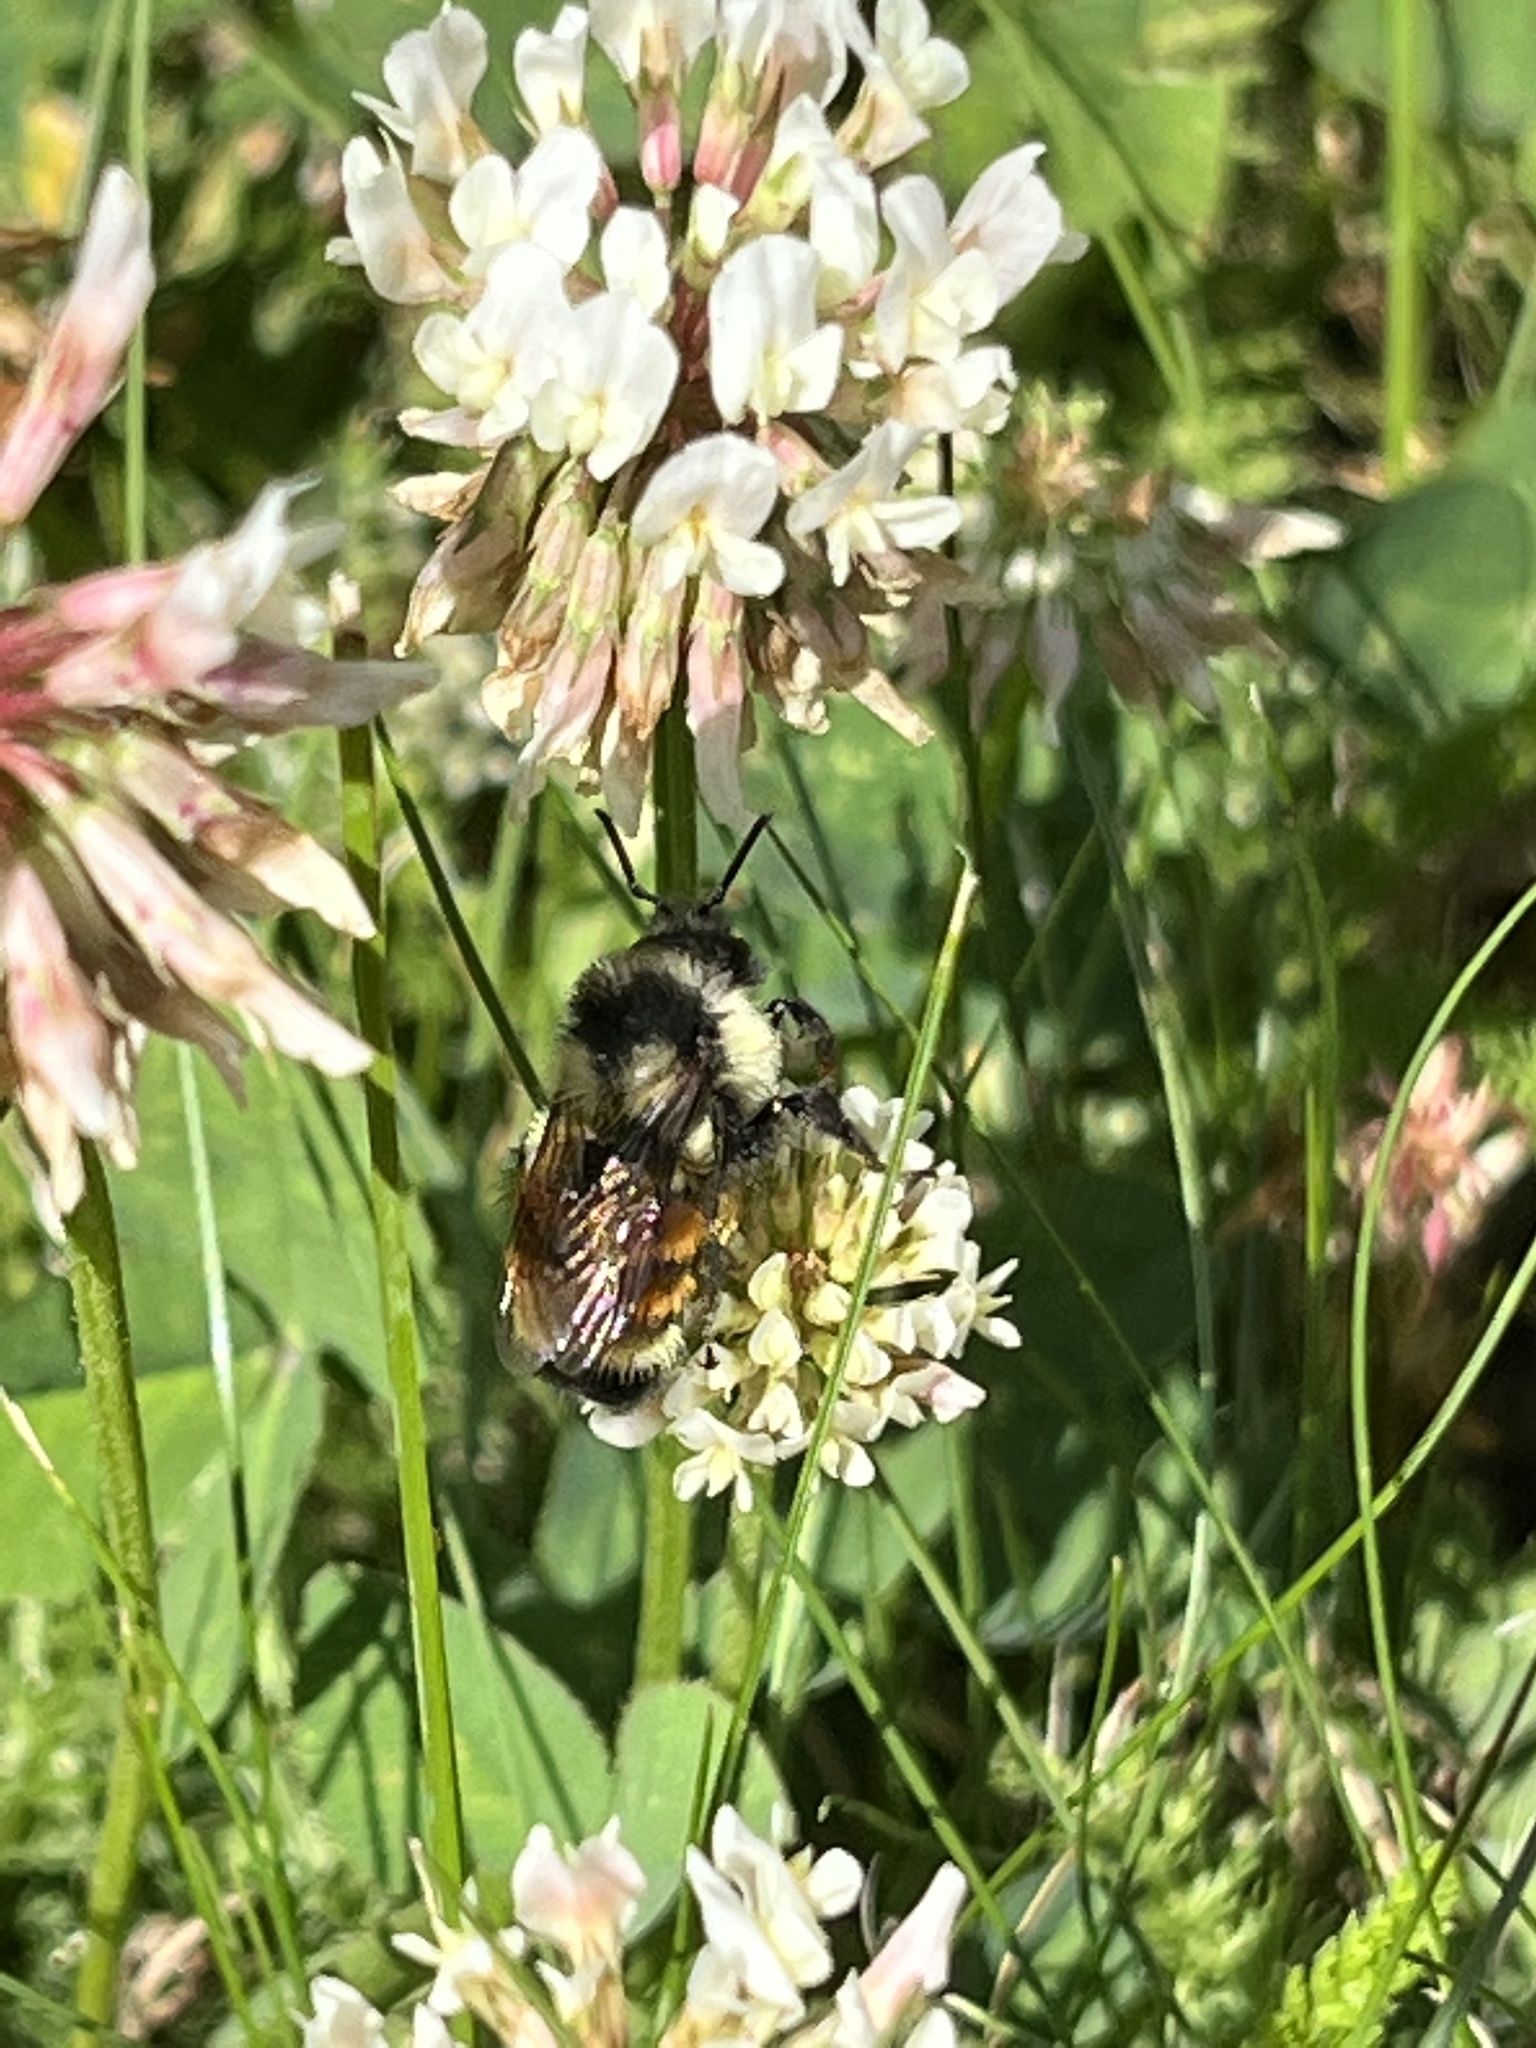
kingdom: Animalia
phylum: Arthropoda
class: Insecta
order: Hymenoptera
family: Apidae
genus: Bombus
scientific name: Bombus ternarius
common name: Tri-colored bumble bee
